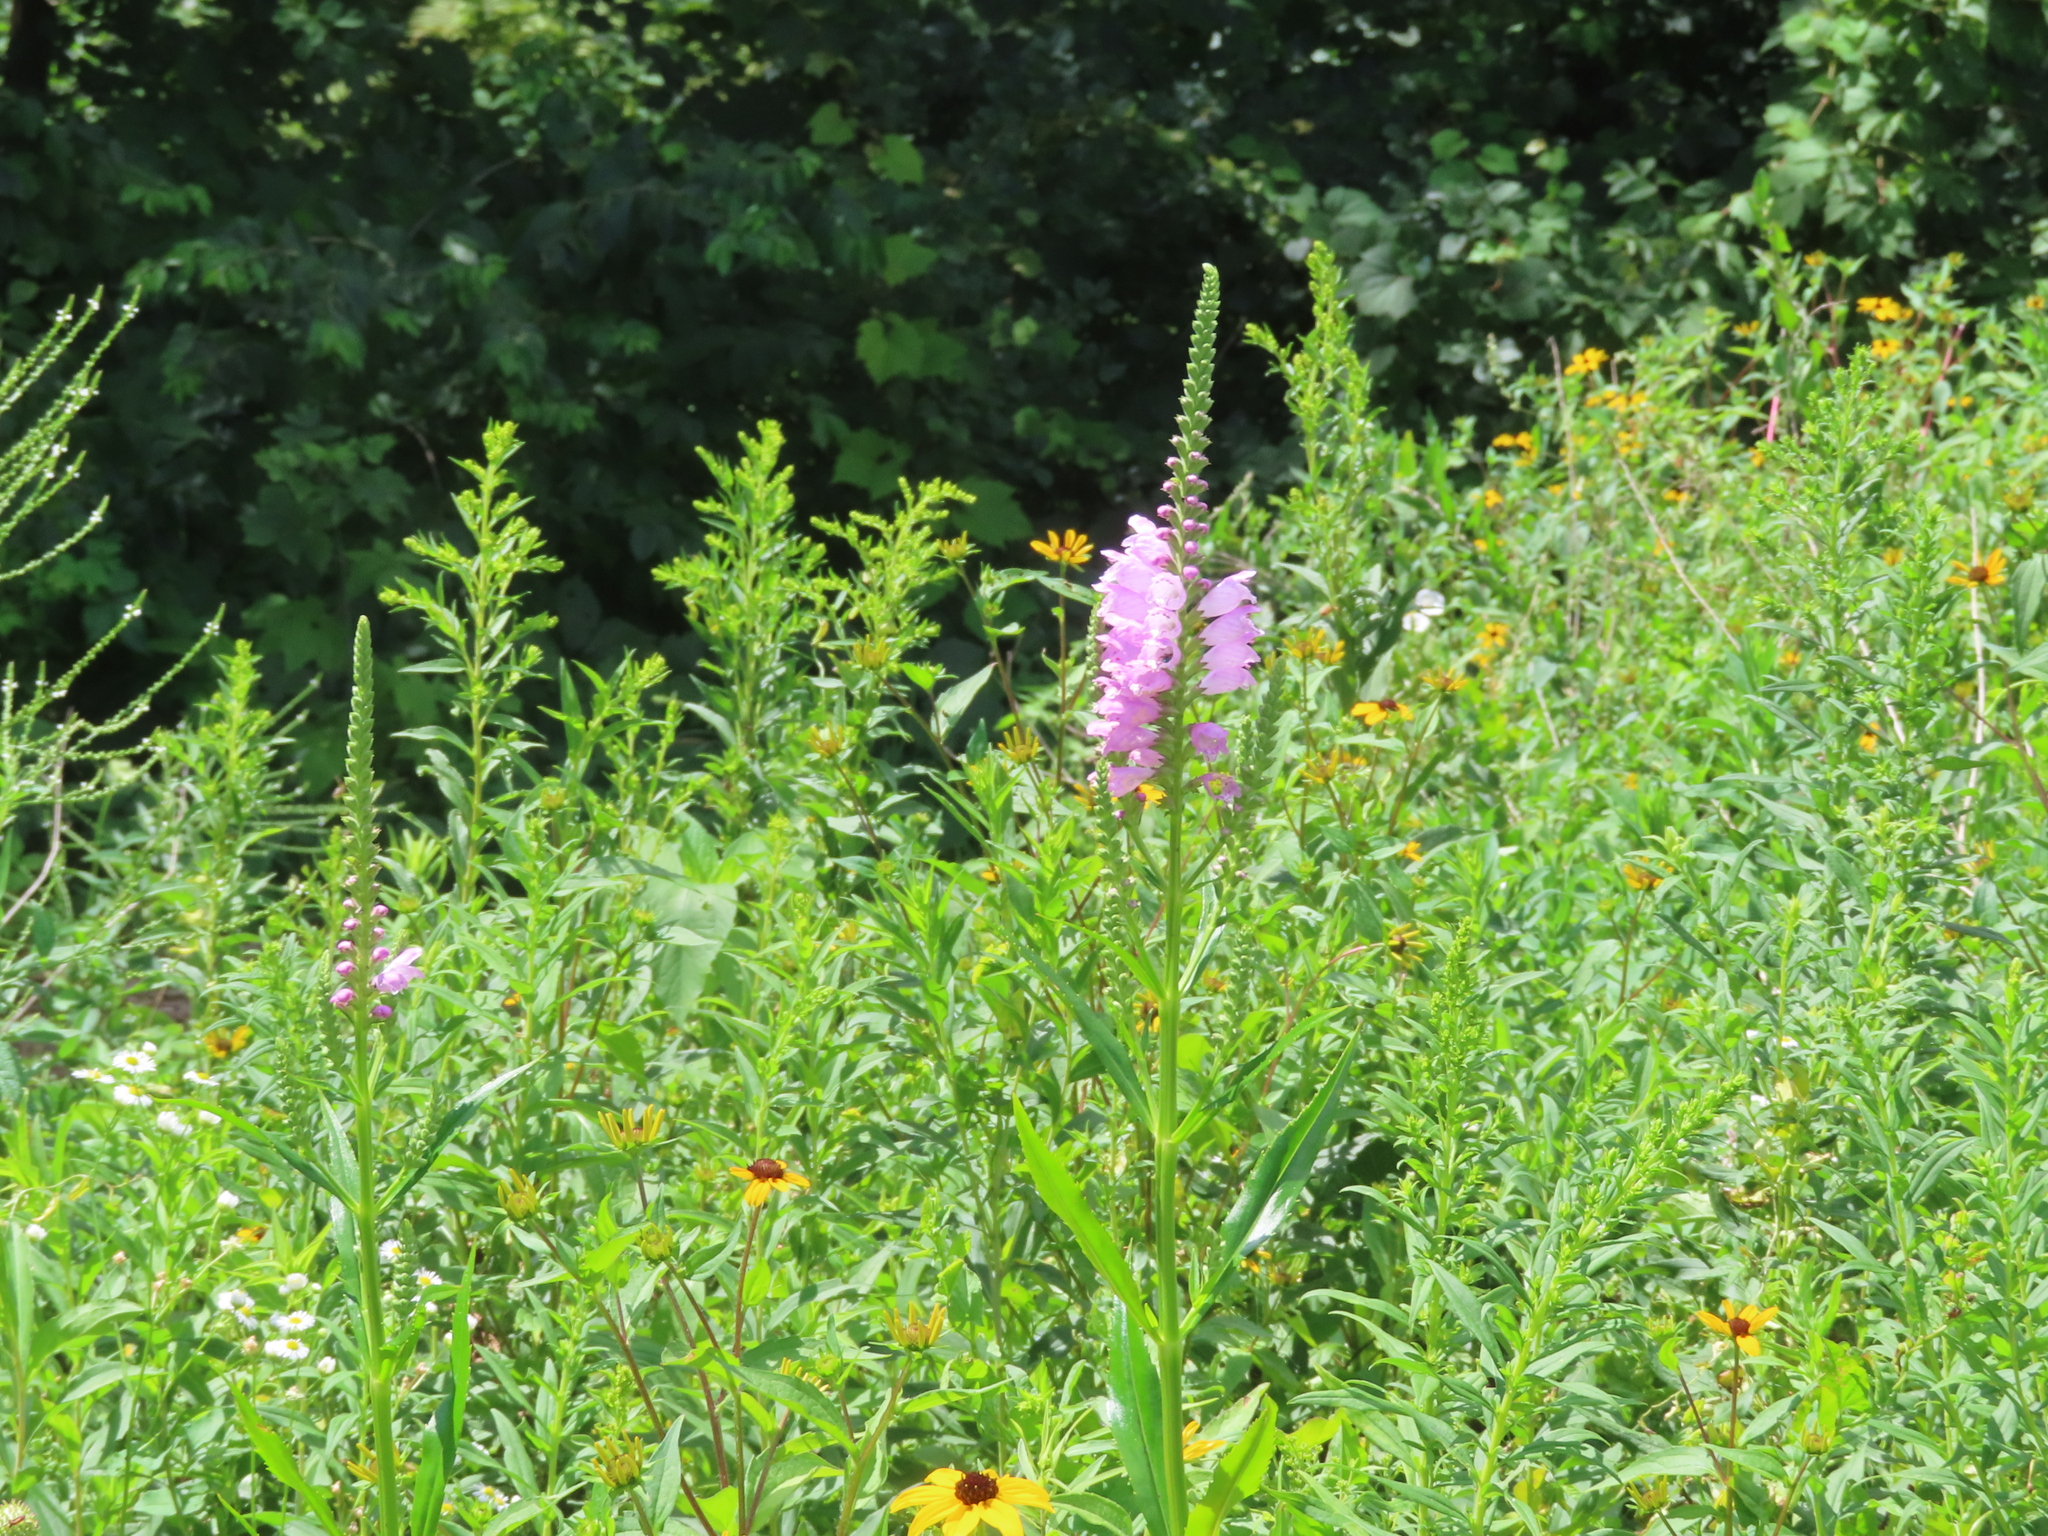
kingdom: Plantae
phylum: Tracheophyta
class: Magnoliopsida
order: Lamiales
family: Lamiaceae
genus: Physostegia
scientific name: Physostegia virginiana
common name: Obedient-plant
